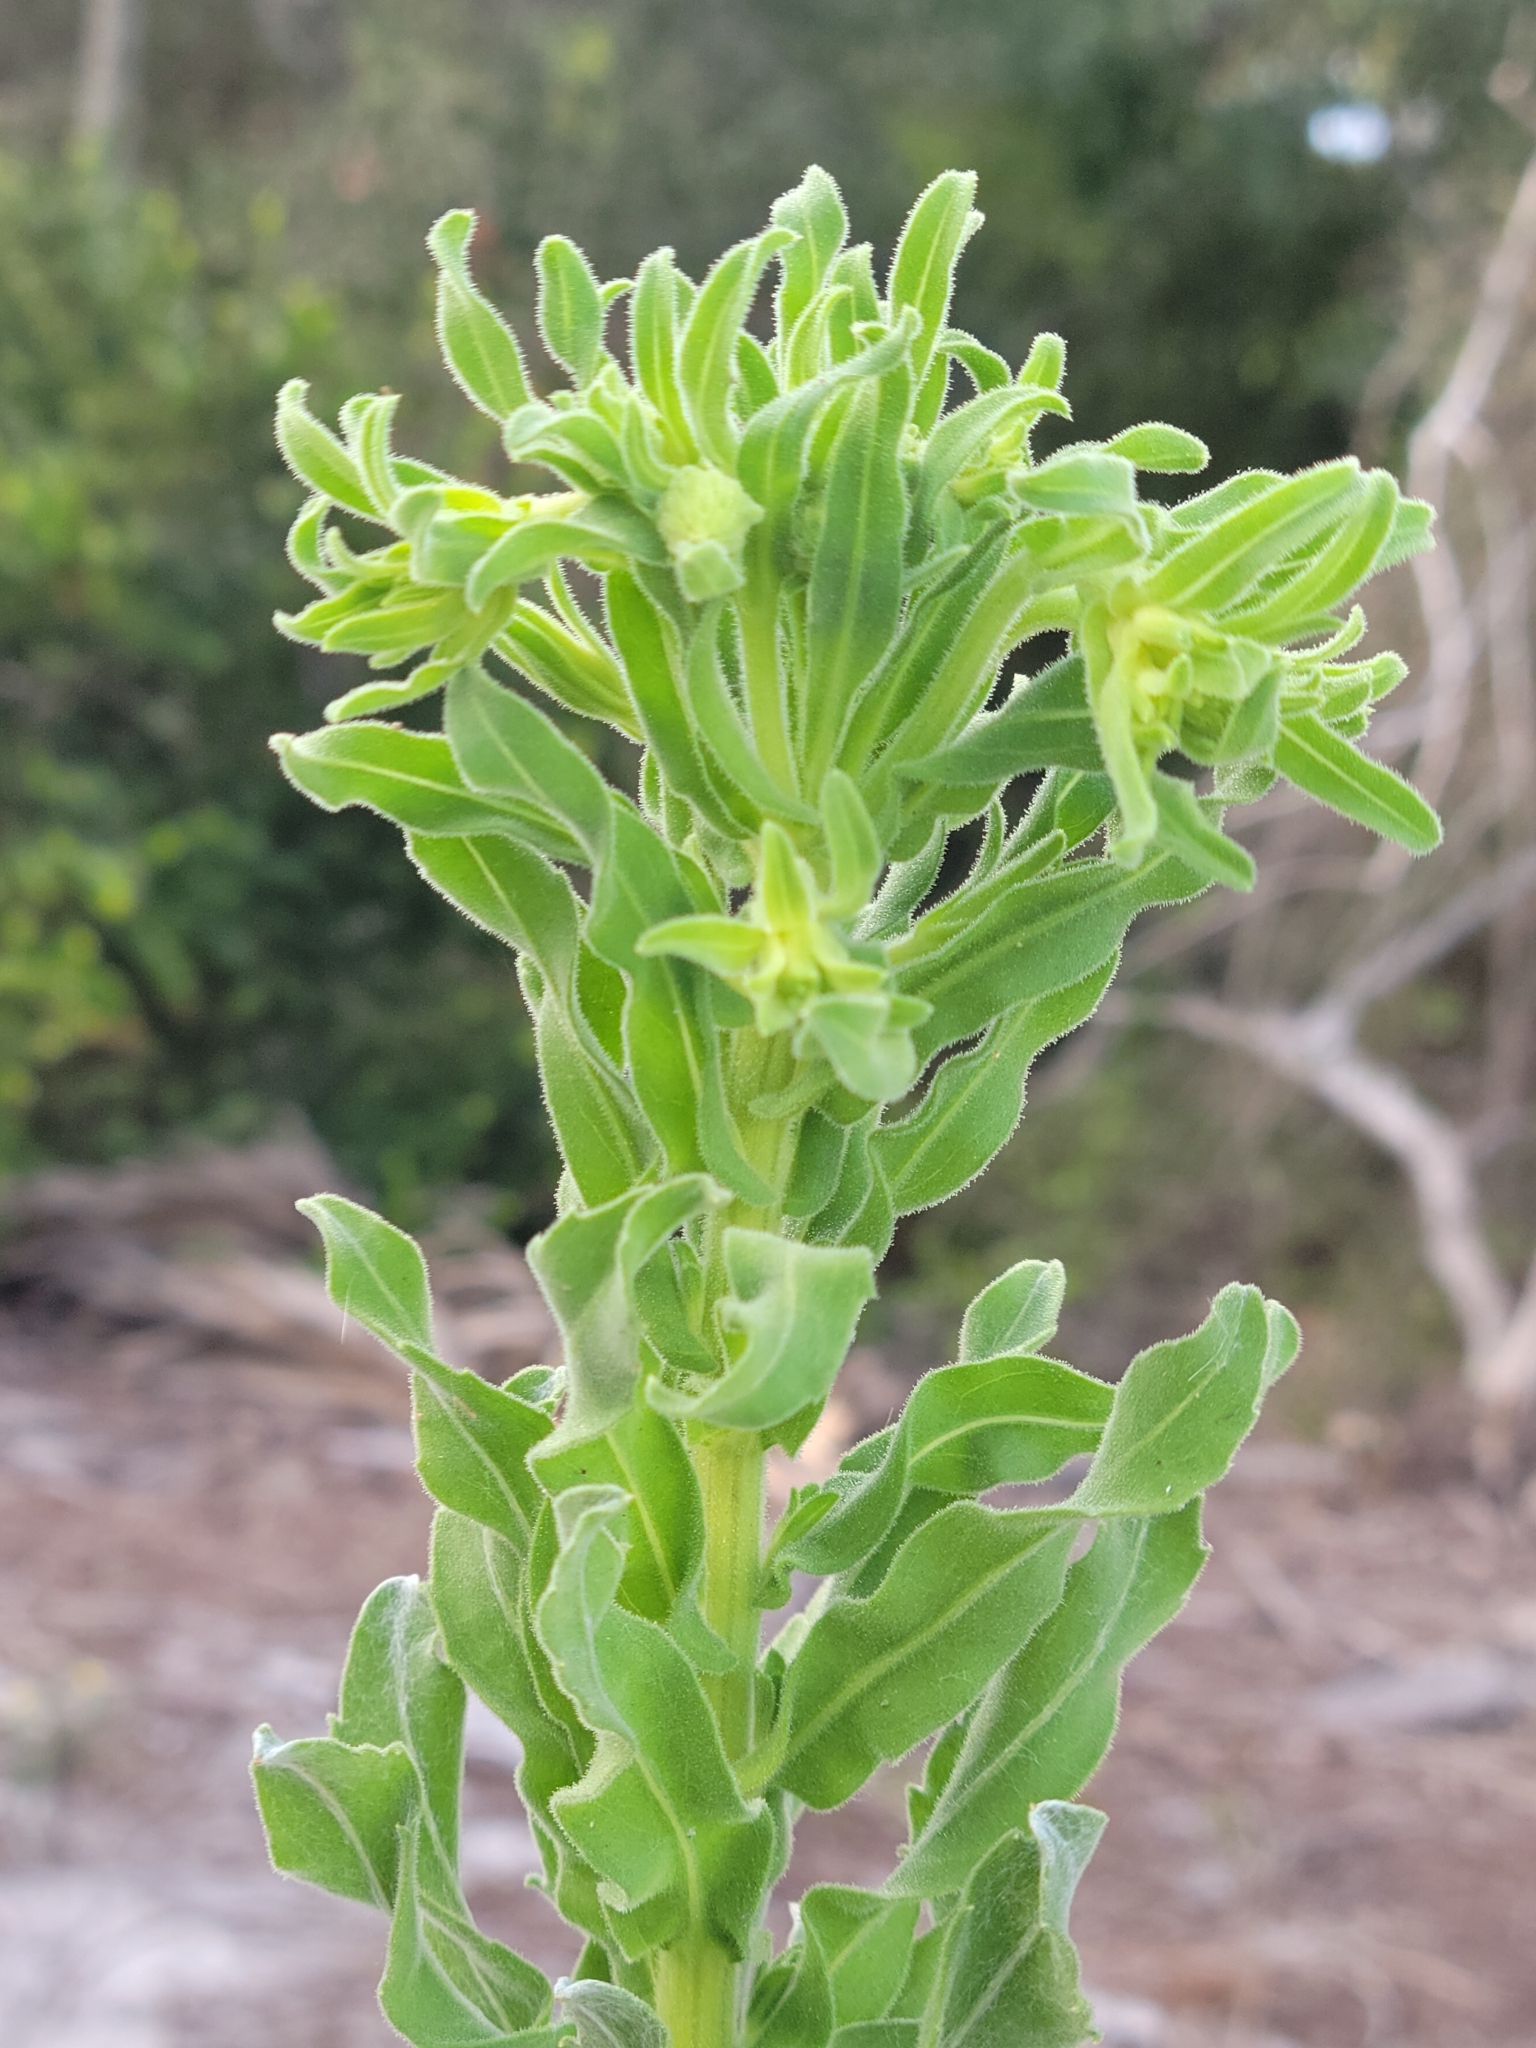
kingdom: Plantae
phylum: Tracheophyta
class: Magnoliopsida
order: Asterales
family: Asteraceae
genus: Chrysopsis
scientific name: Chrysopsis delaneyi
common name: Delaney's goldenaster
